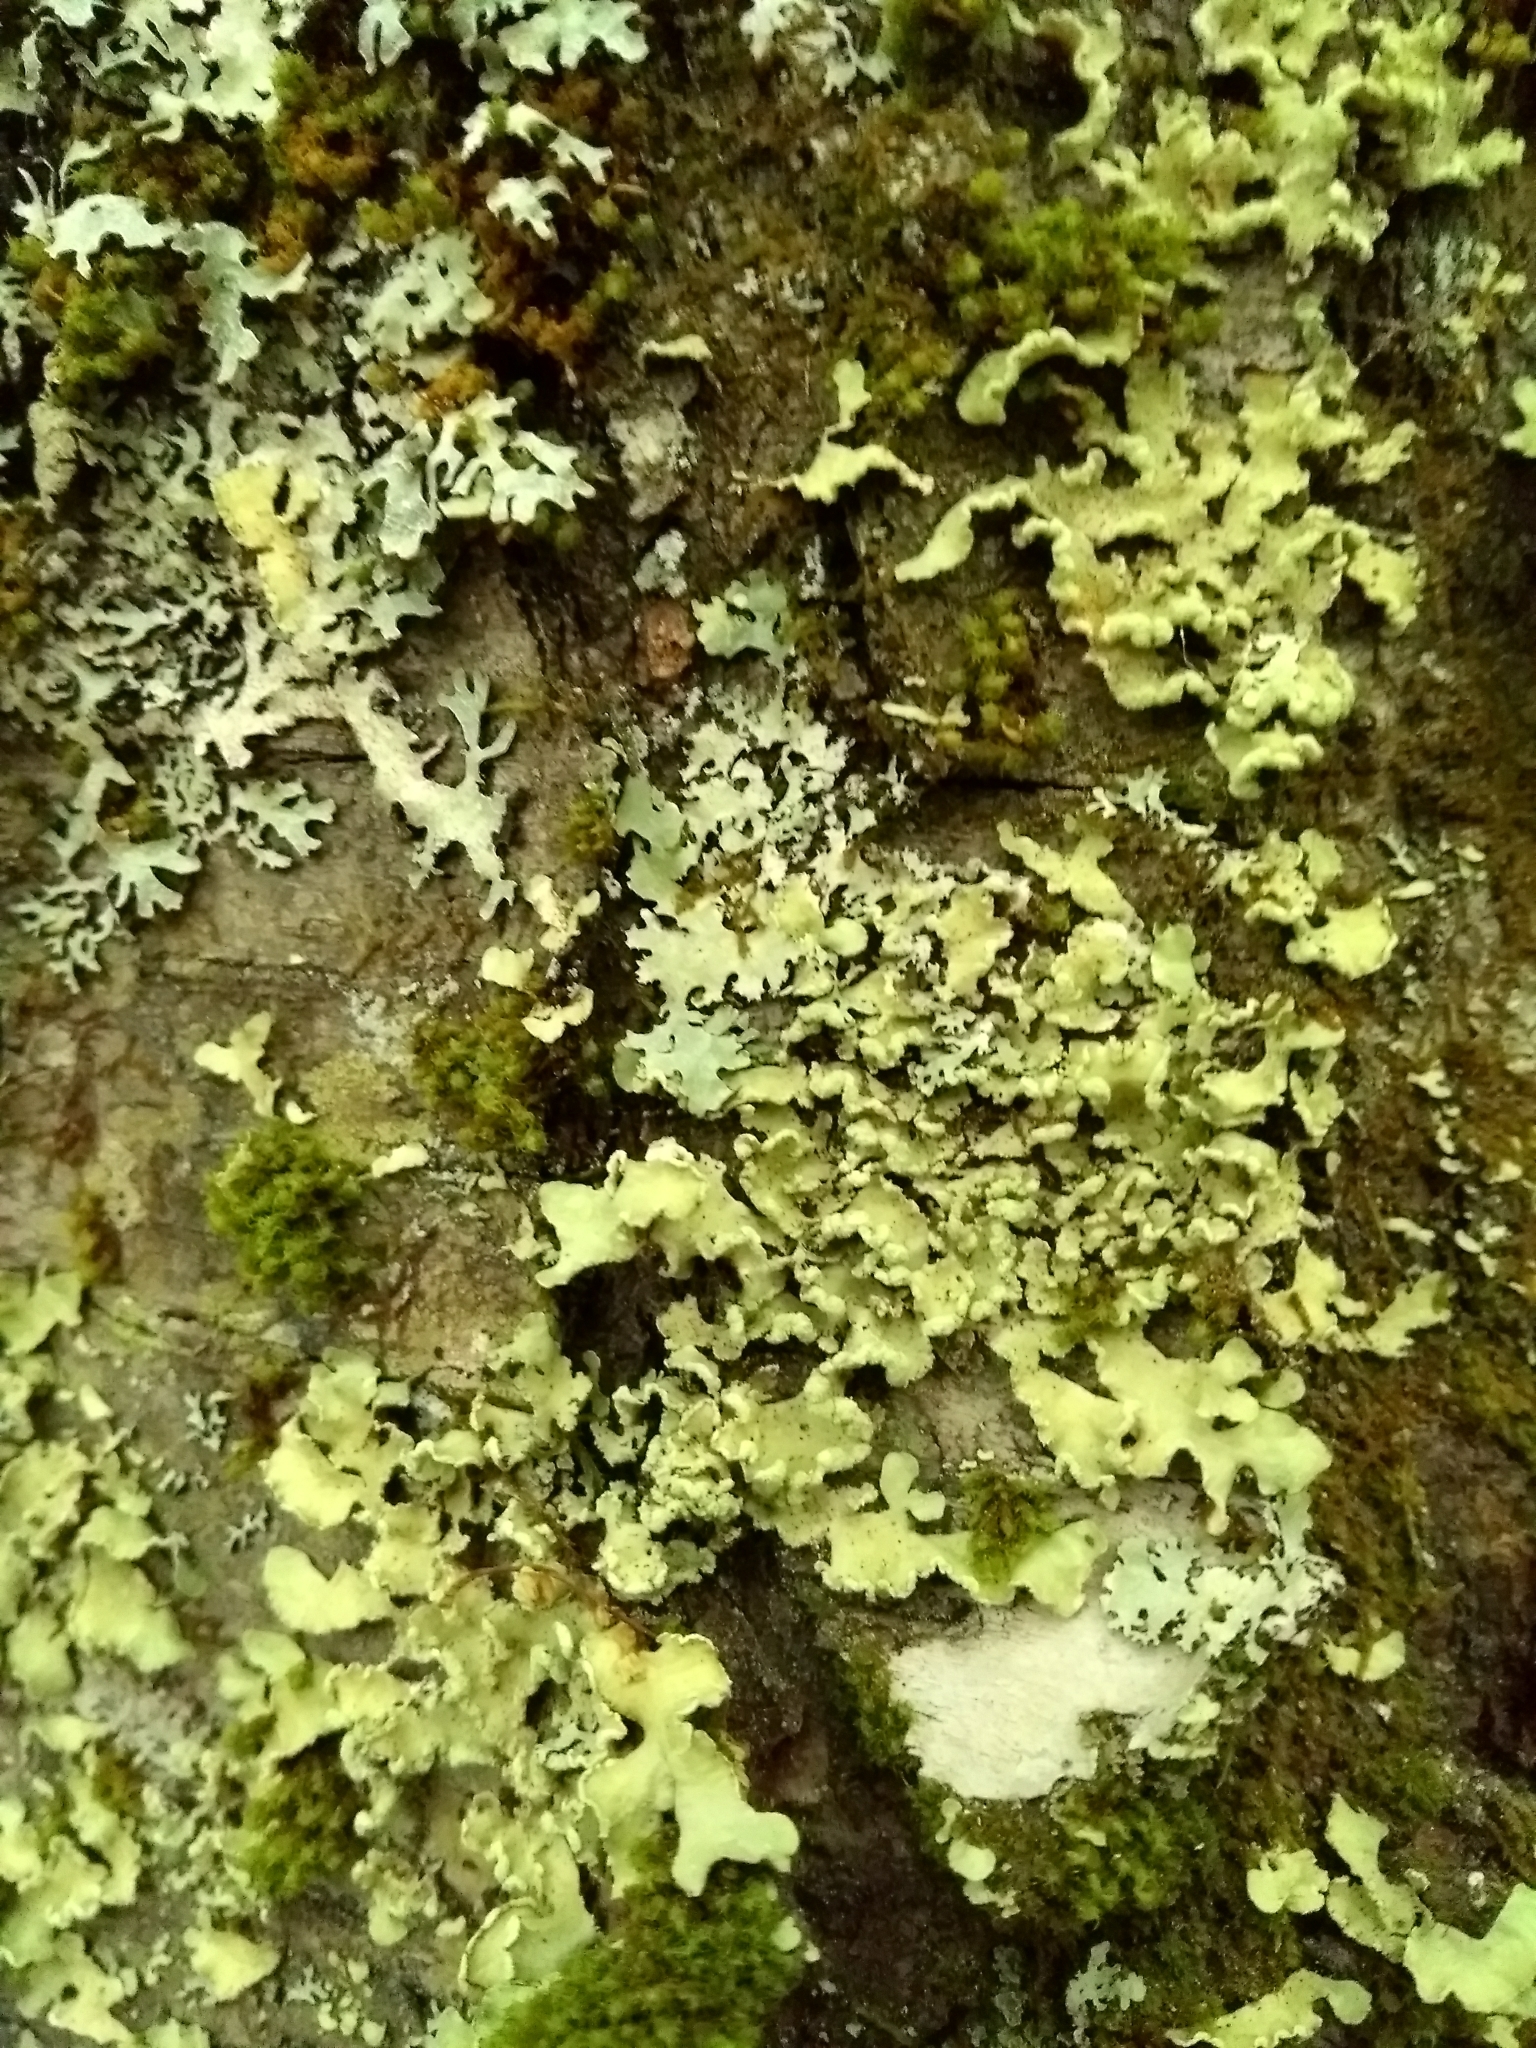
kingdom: Fungi
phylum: Ascomycota
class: Lecanoromycetes
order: Lecanorales
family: Parmeliaceae
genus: Usnocetraria
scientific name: Usnocetraria oakesiana
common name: Yellow ribbon lichen
